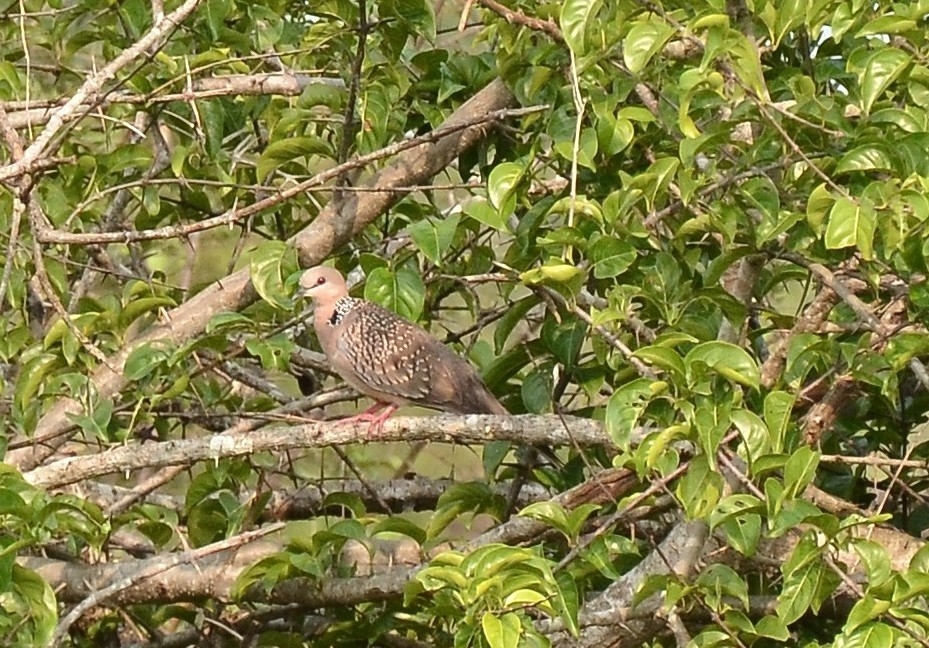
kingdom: Animalia
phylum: Chordata
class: Aves
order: Columbiformes
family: Columbidae
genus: Spilopelia
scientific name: Spilopelia chinensis
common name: Spotted dove
